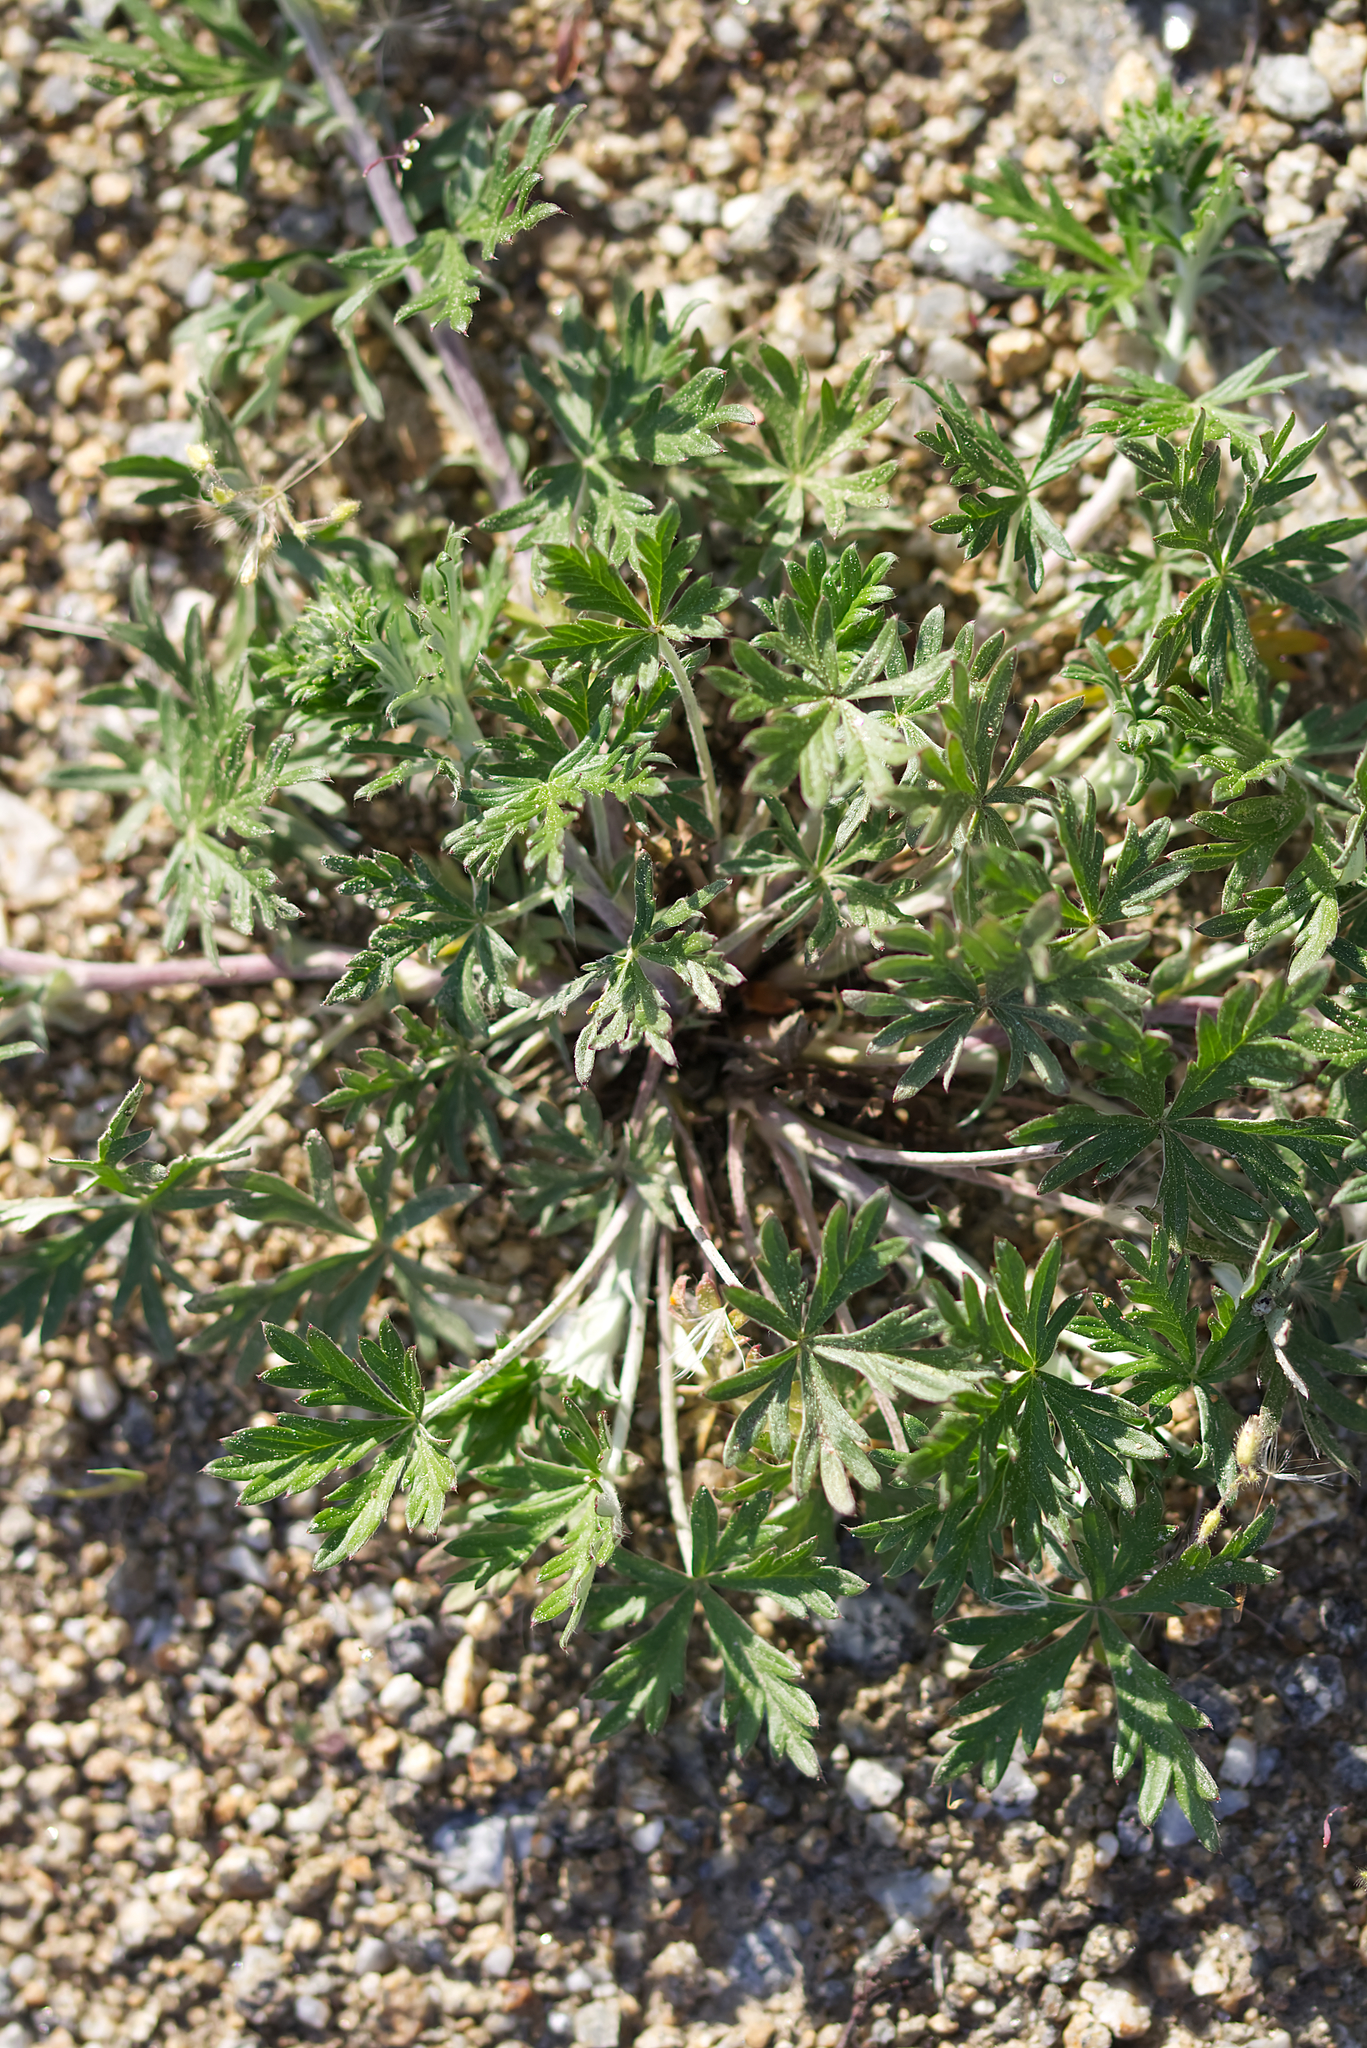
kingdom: Plantae
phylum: Tracheophyta
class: Magnoliopsida
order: Rosales
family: Rosaceae
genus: Potentilla
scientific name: Potentilla argentea
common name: Hoary cinquefoil
